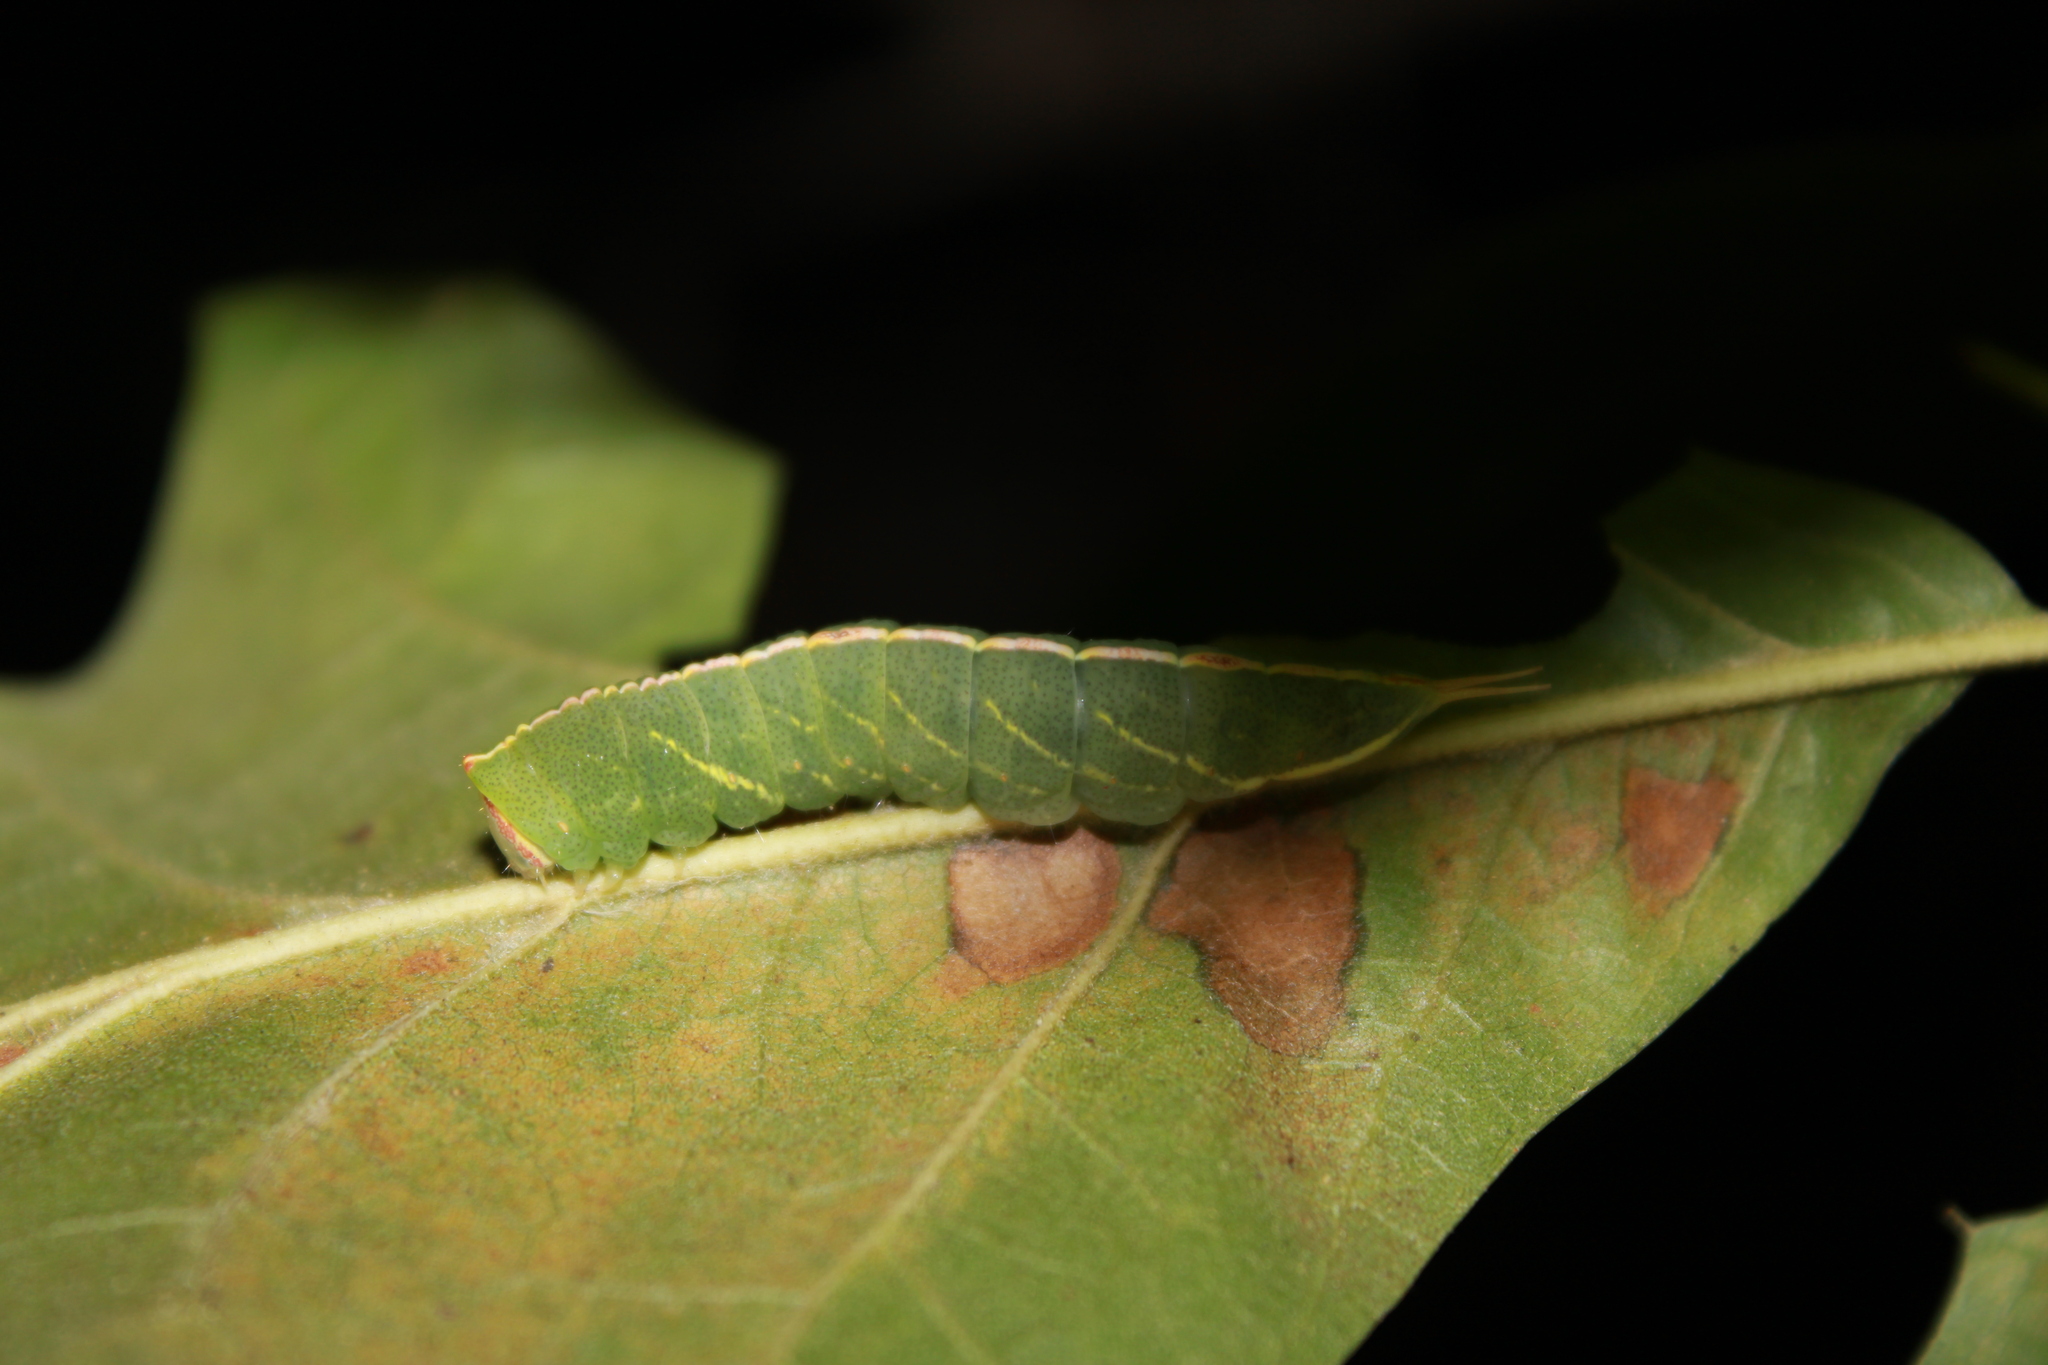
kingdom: Animalia
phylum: Arthropoda
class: Insecta
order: Lepidoptera
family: Notodontidae
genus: Macrurocampa
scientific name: Macrurocampa marthesia
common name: Mottled prominent
